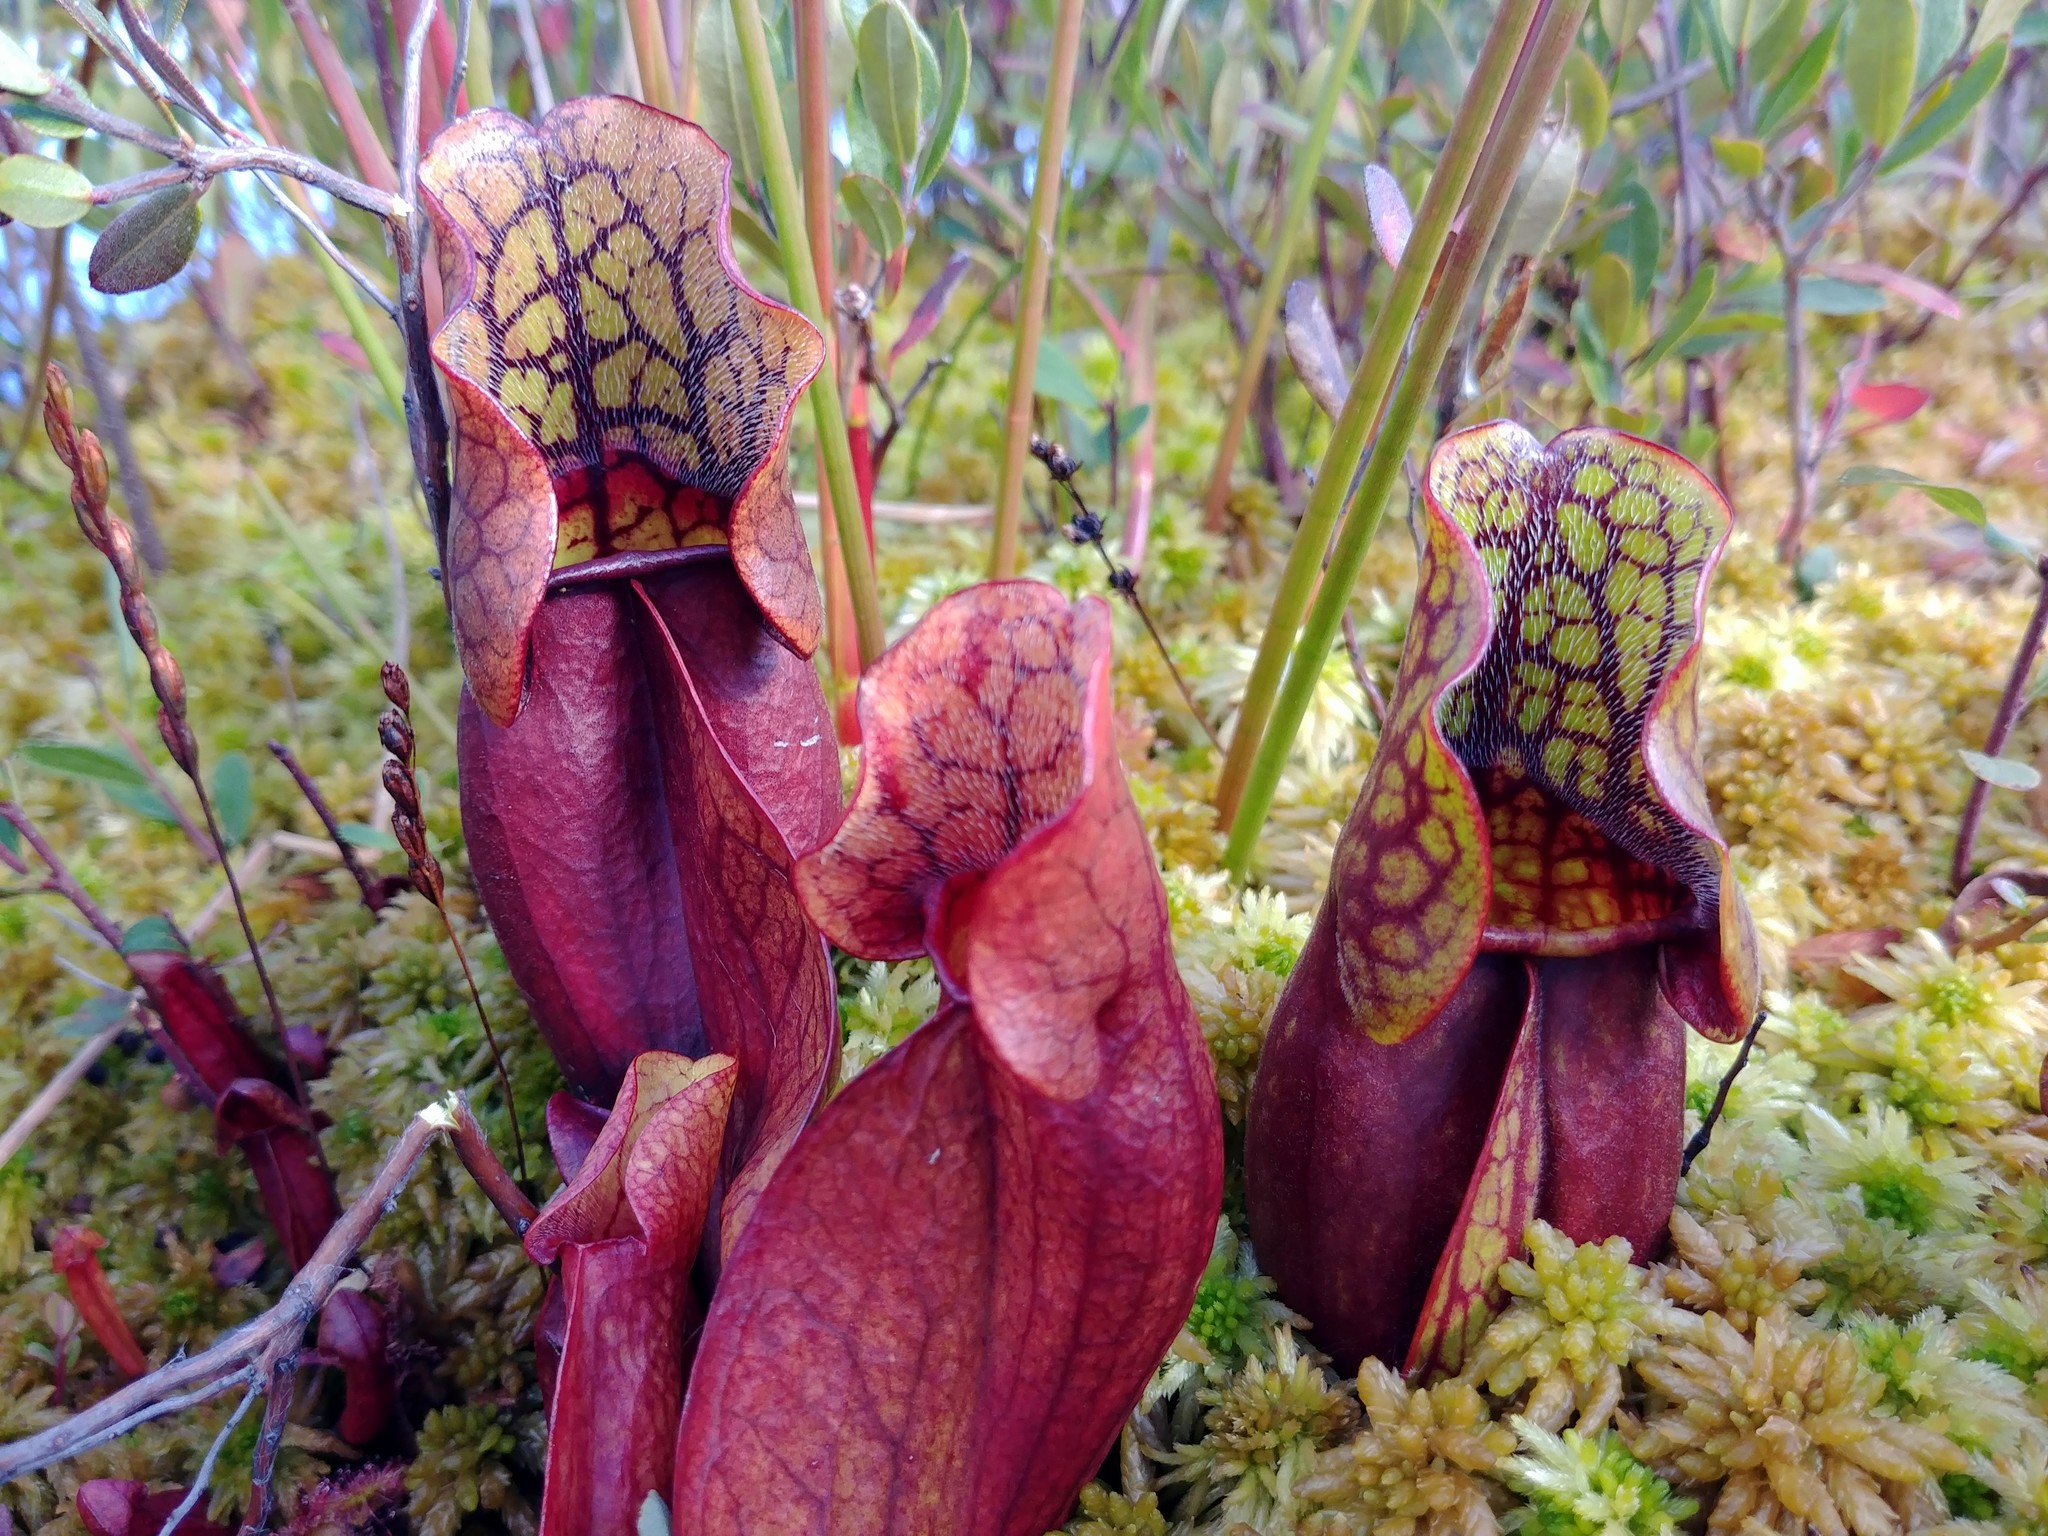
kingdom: Plantae
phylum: Tracheophyta
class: Magnoliopsida
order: Ericales
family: Sarraceniaceae
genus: Sarracenia
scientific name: Sarracenia purpurea
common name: Pitcherplant
